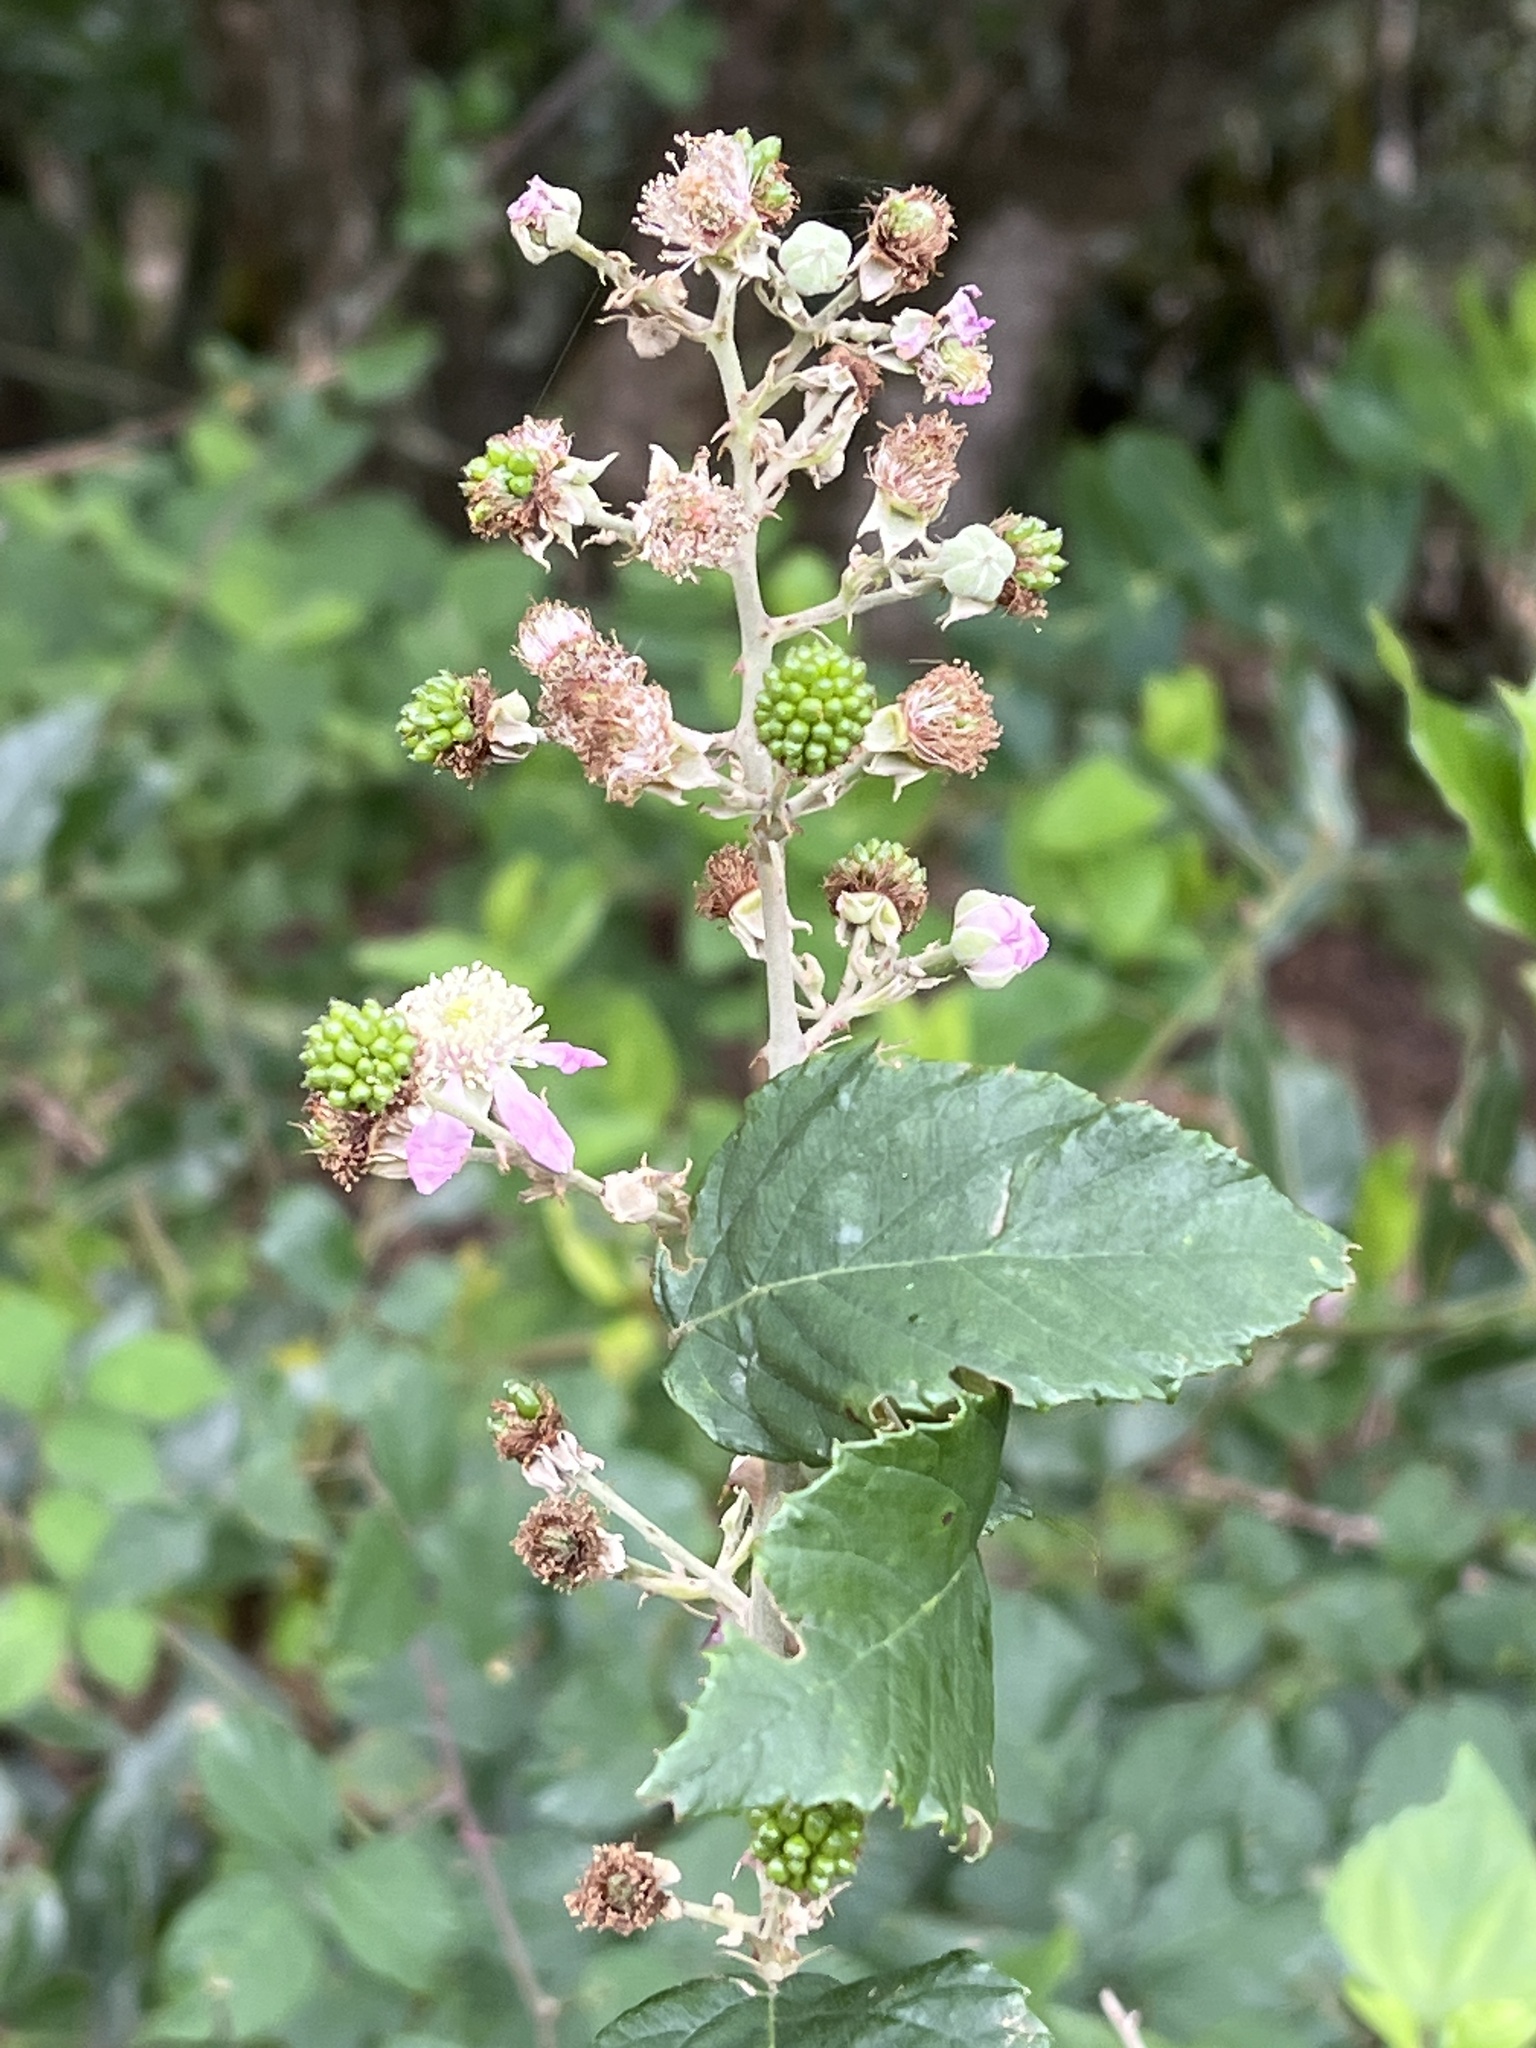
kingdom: Plantae
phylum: Tracheophyta
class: Magnoliopsida
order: Rosales
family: Rosaceae
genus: Rubus
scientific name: Rubus ulmifolius
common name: Elmleaf blackberry
